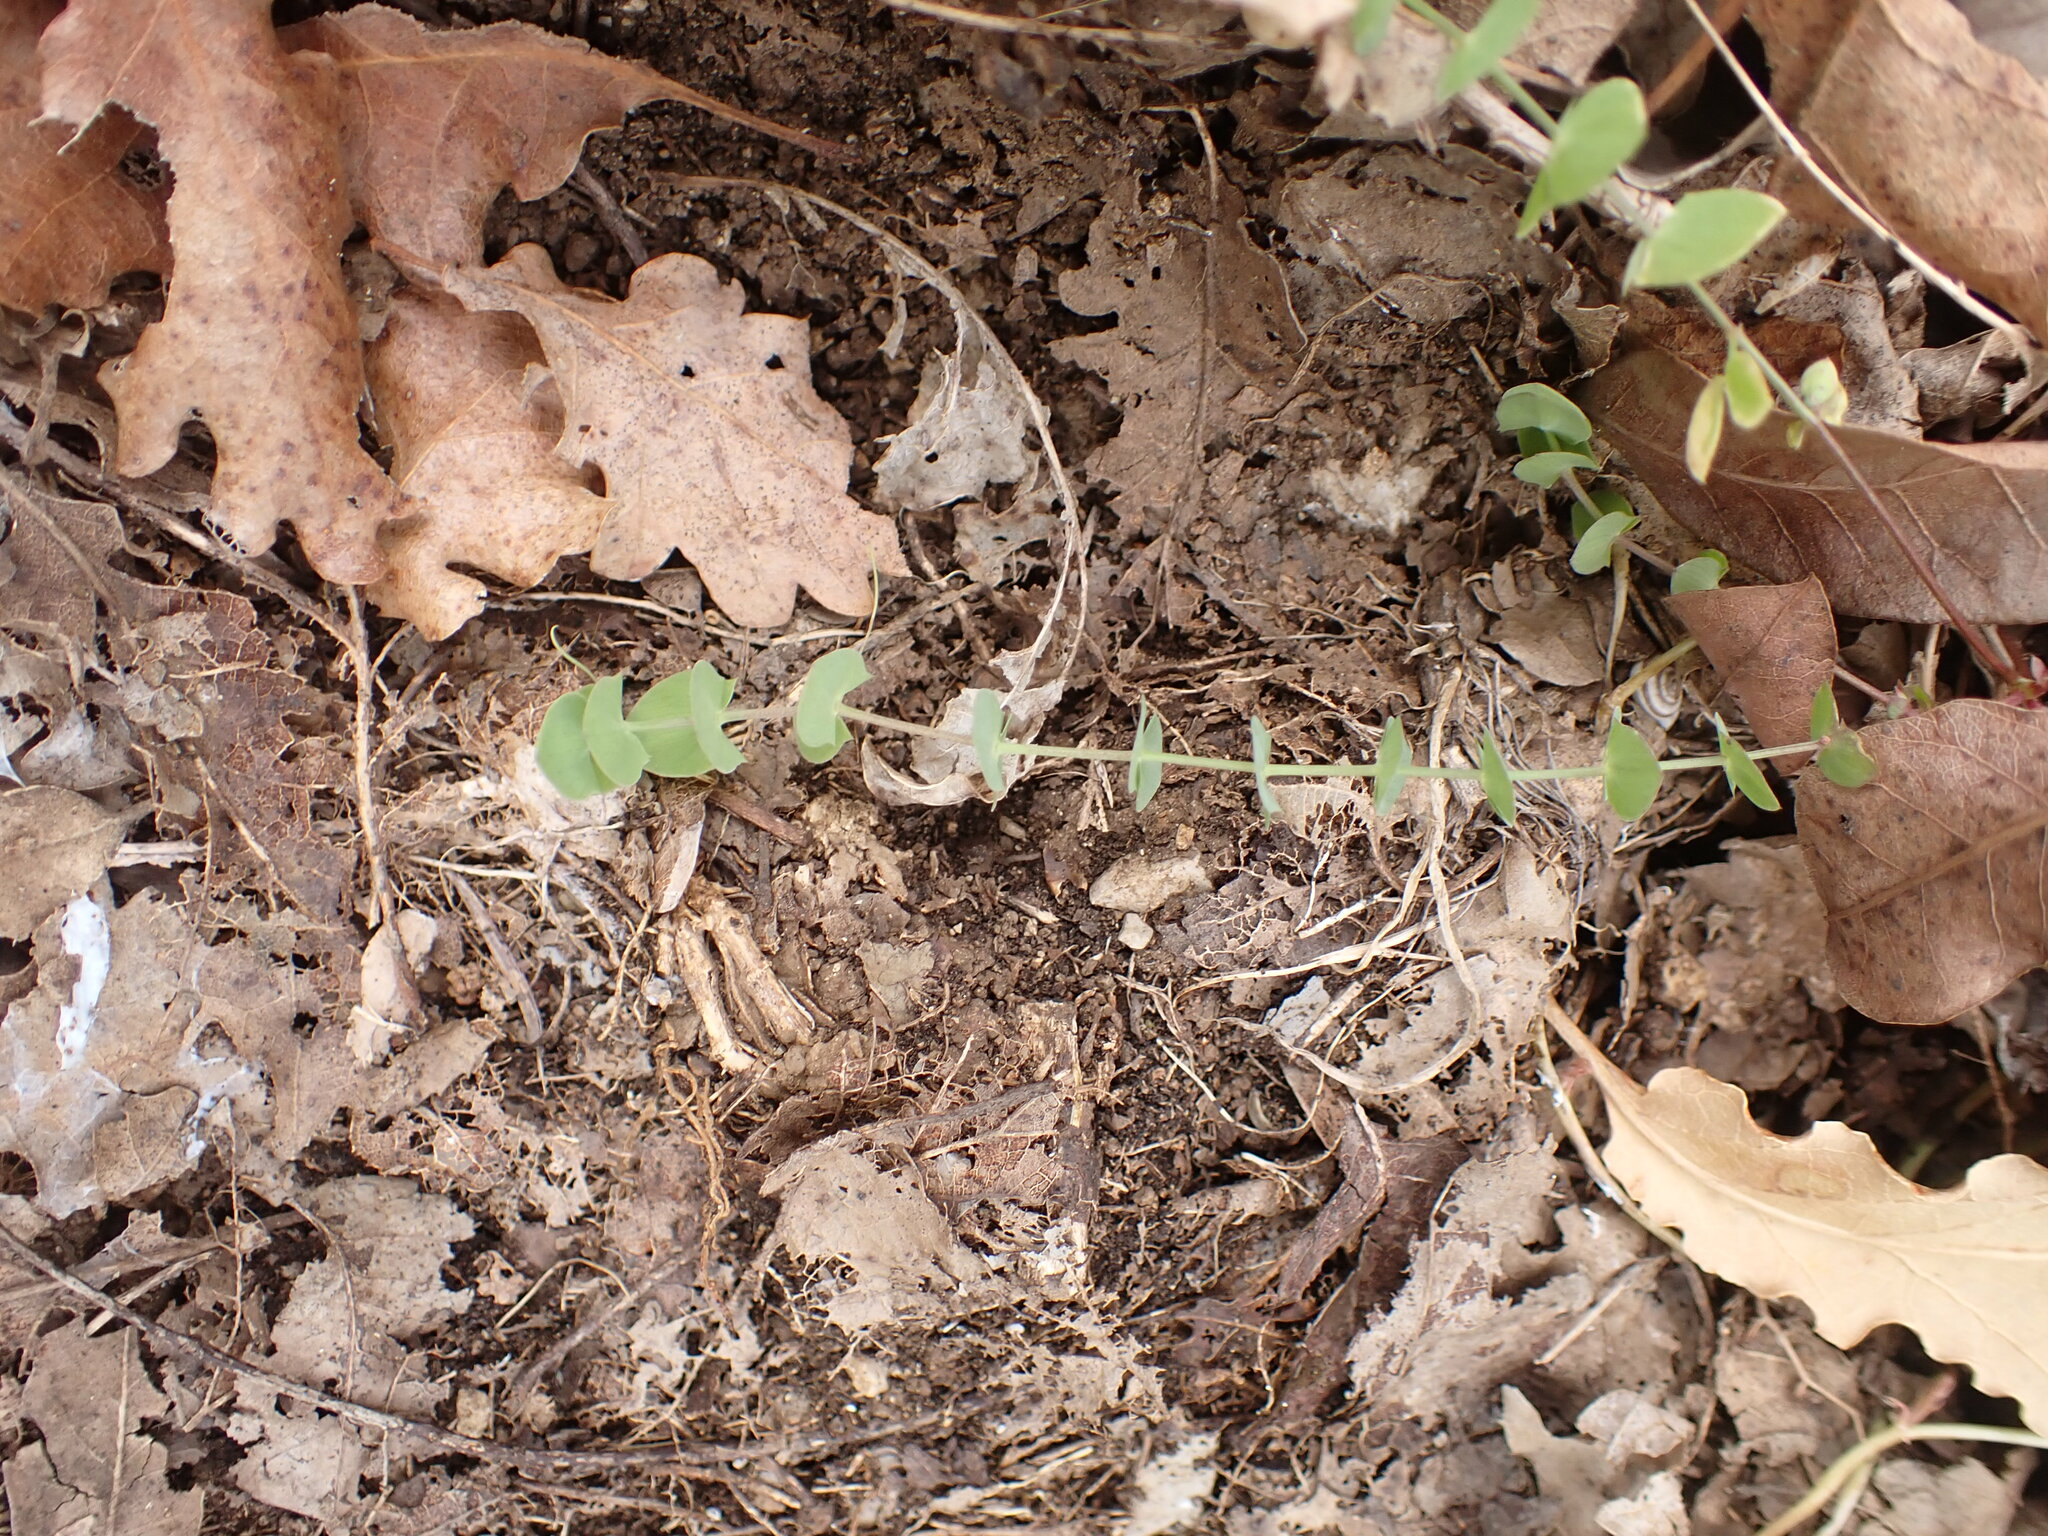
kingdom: Plantae
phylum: Tracheophyta
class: Magnoliopsida
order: Fabales
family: Fabaceae
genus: Lathyrus
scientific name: Lathyrus aphaca
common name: Yellow vetchling
